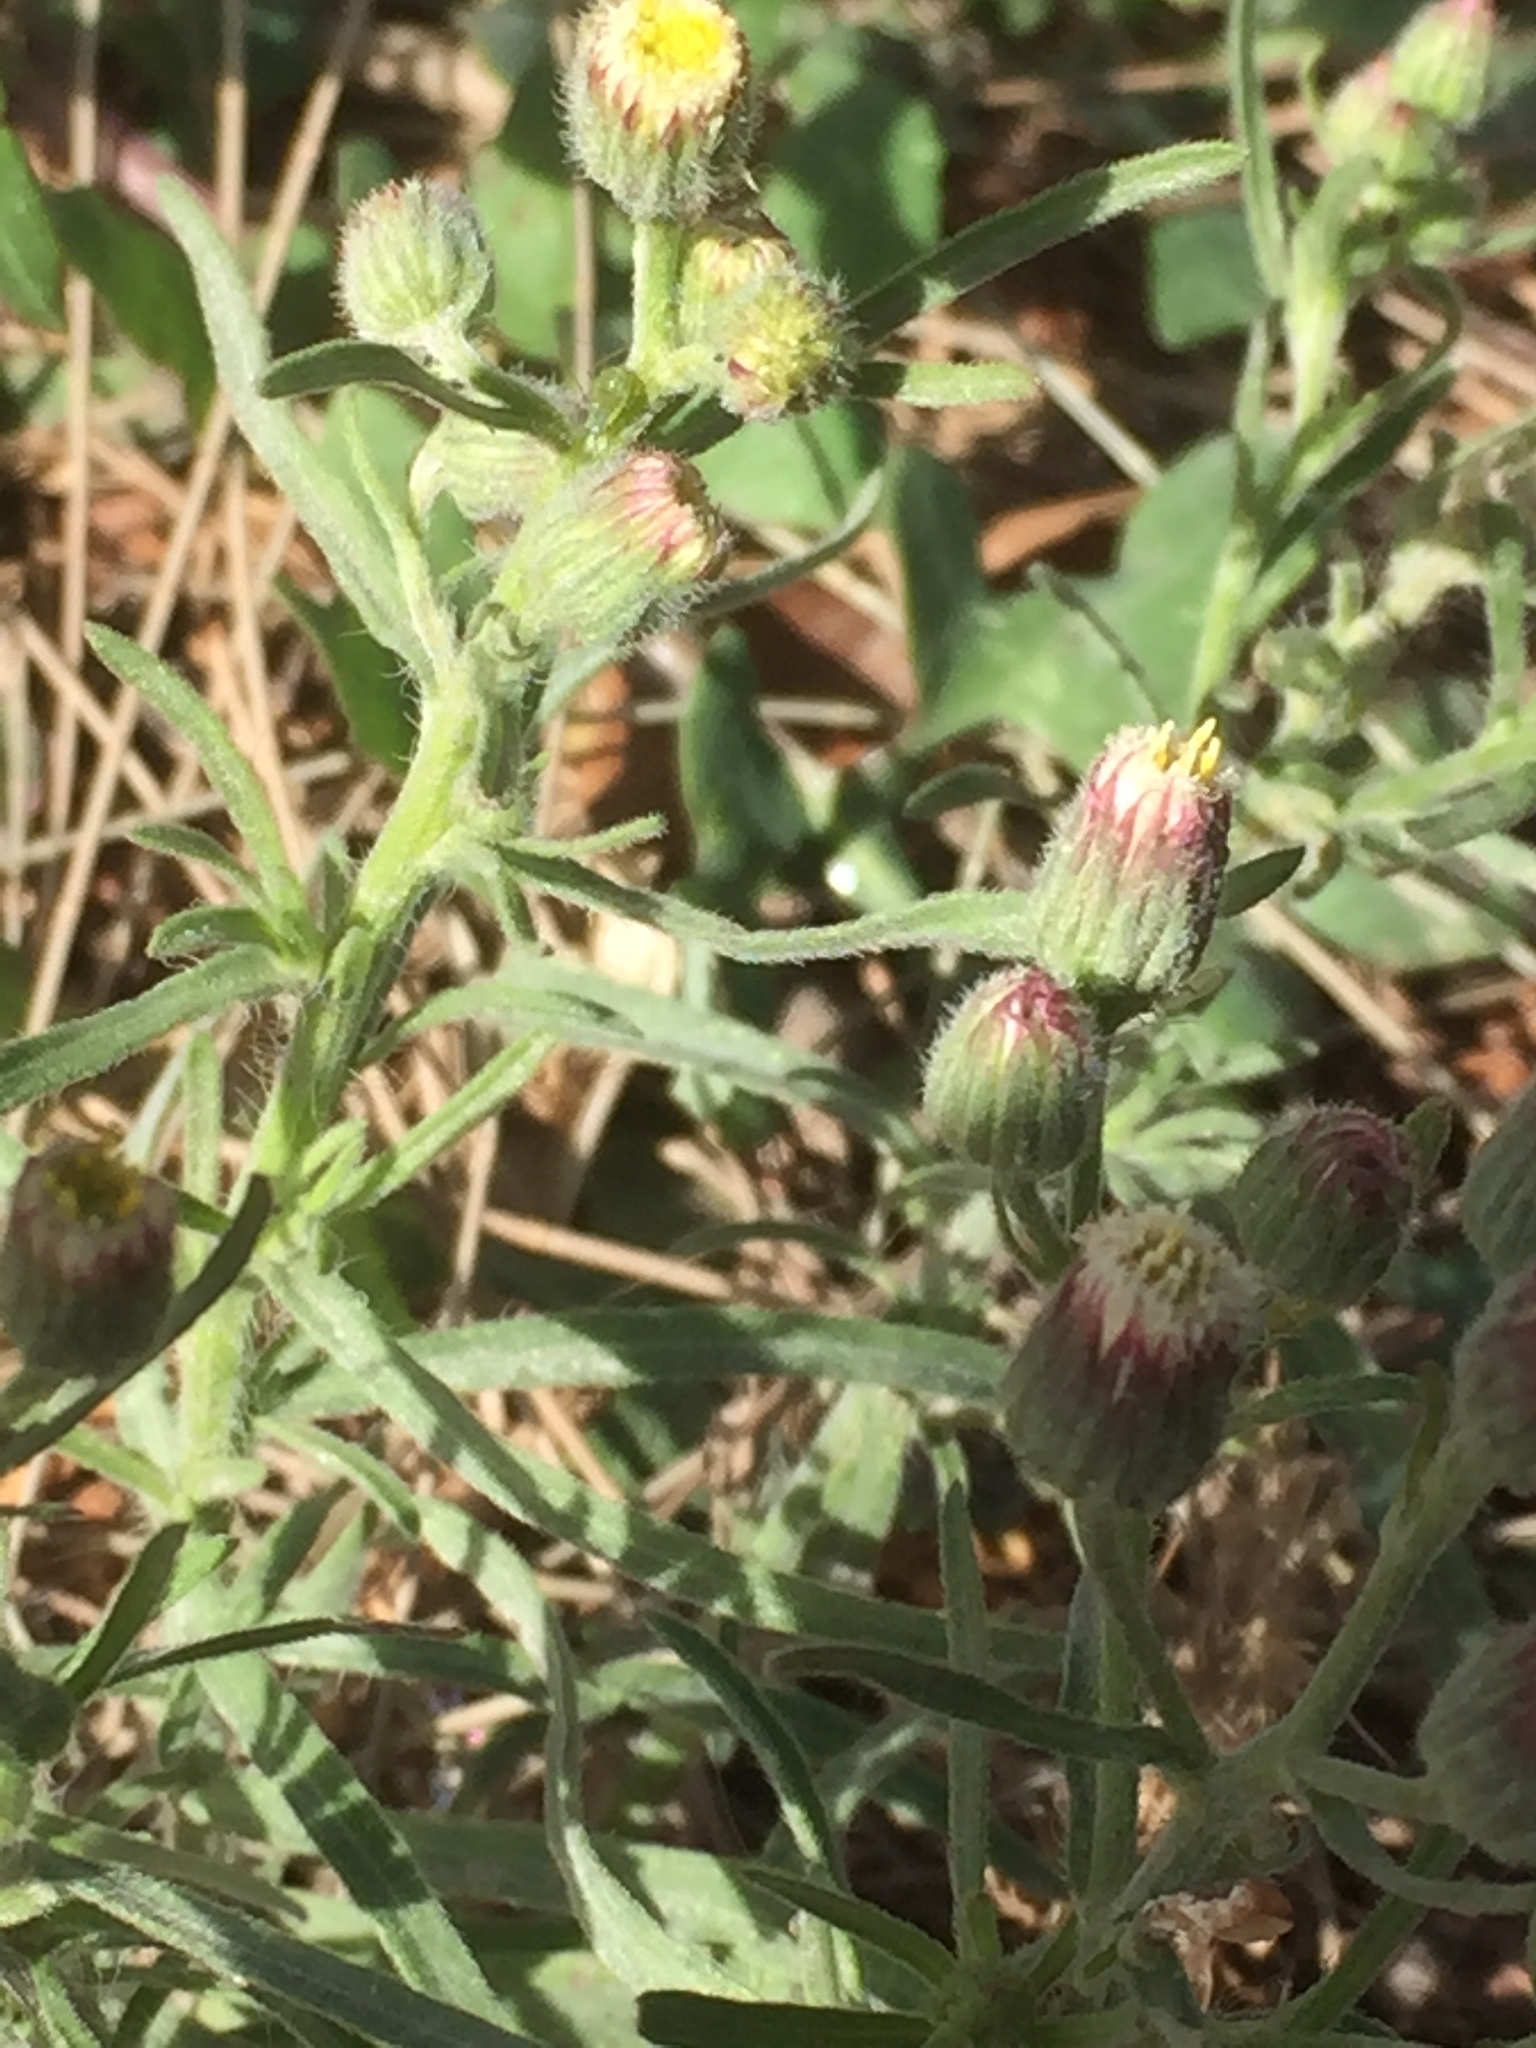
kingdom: Plantae
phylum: Tracheophyta
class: Magnoliopsida
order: Asterales
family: Asteraceae
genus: Erigeron
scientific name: Erigeron sumatrensis
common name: Daisy
